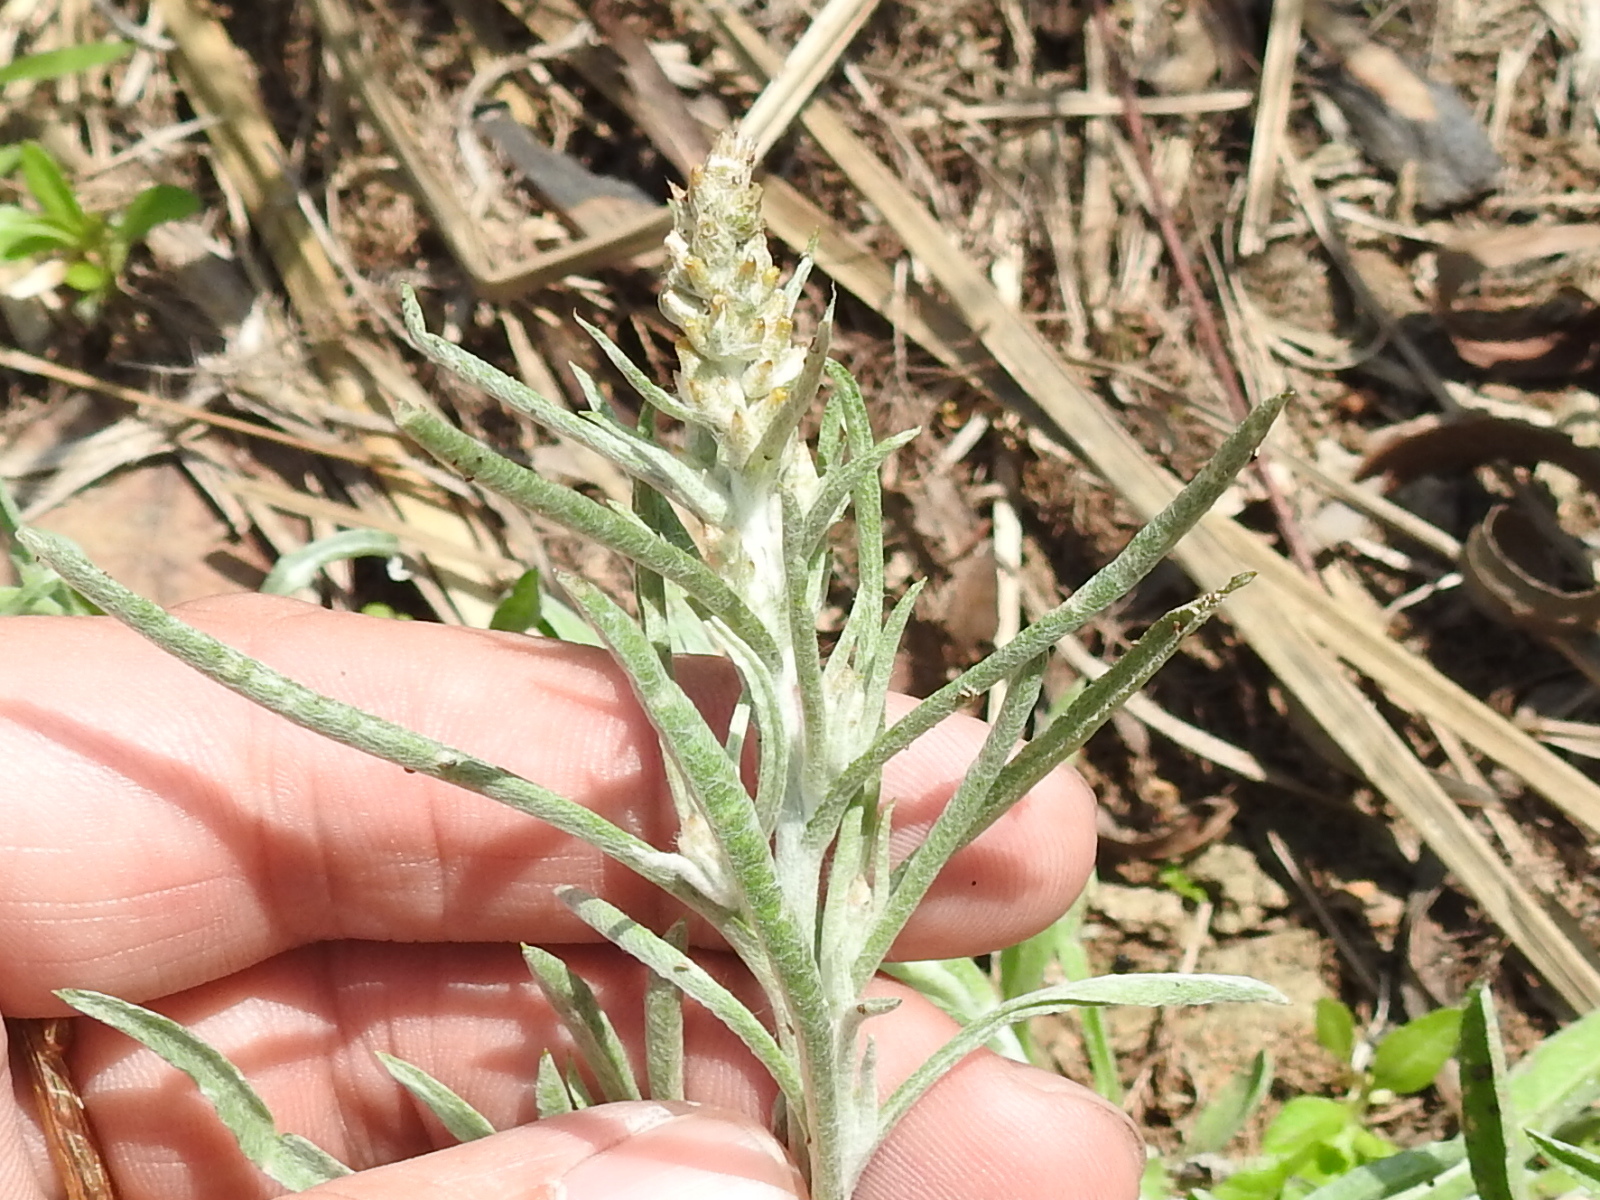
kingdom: Plantae
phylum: Tracheophyta
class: Magnoliopsida
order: Asterales
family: Asteraceae
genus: Gamochaeta
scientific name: Gamochaeta falcata
